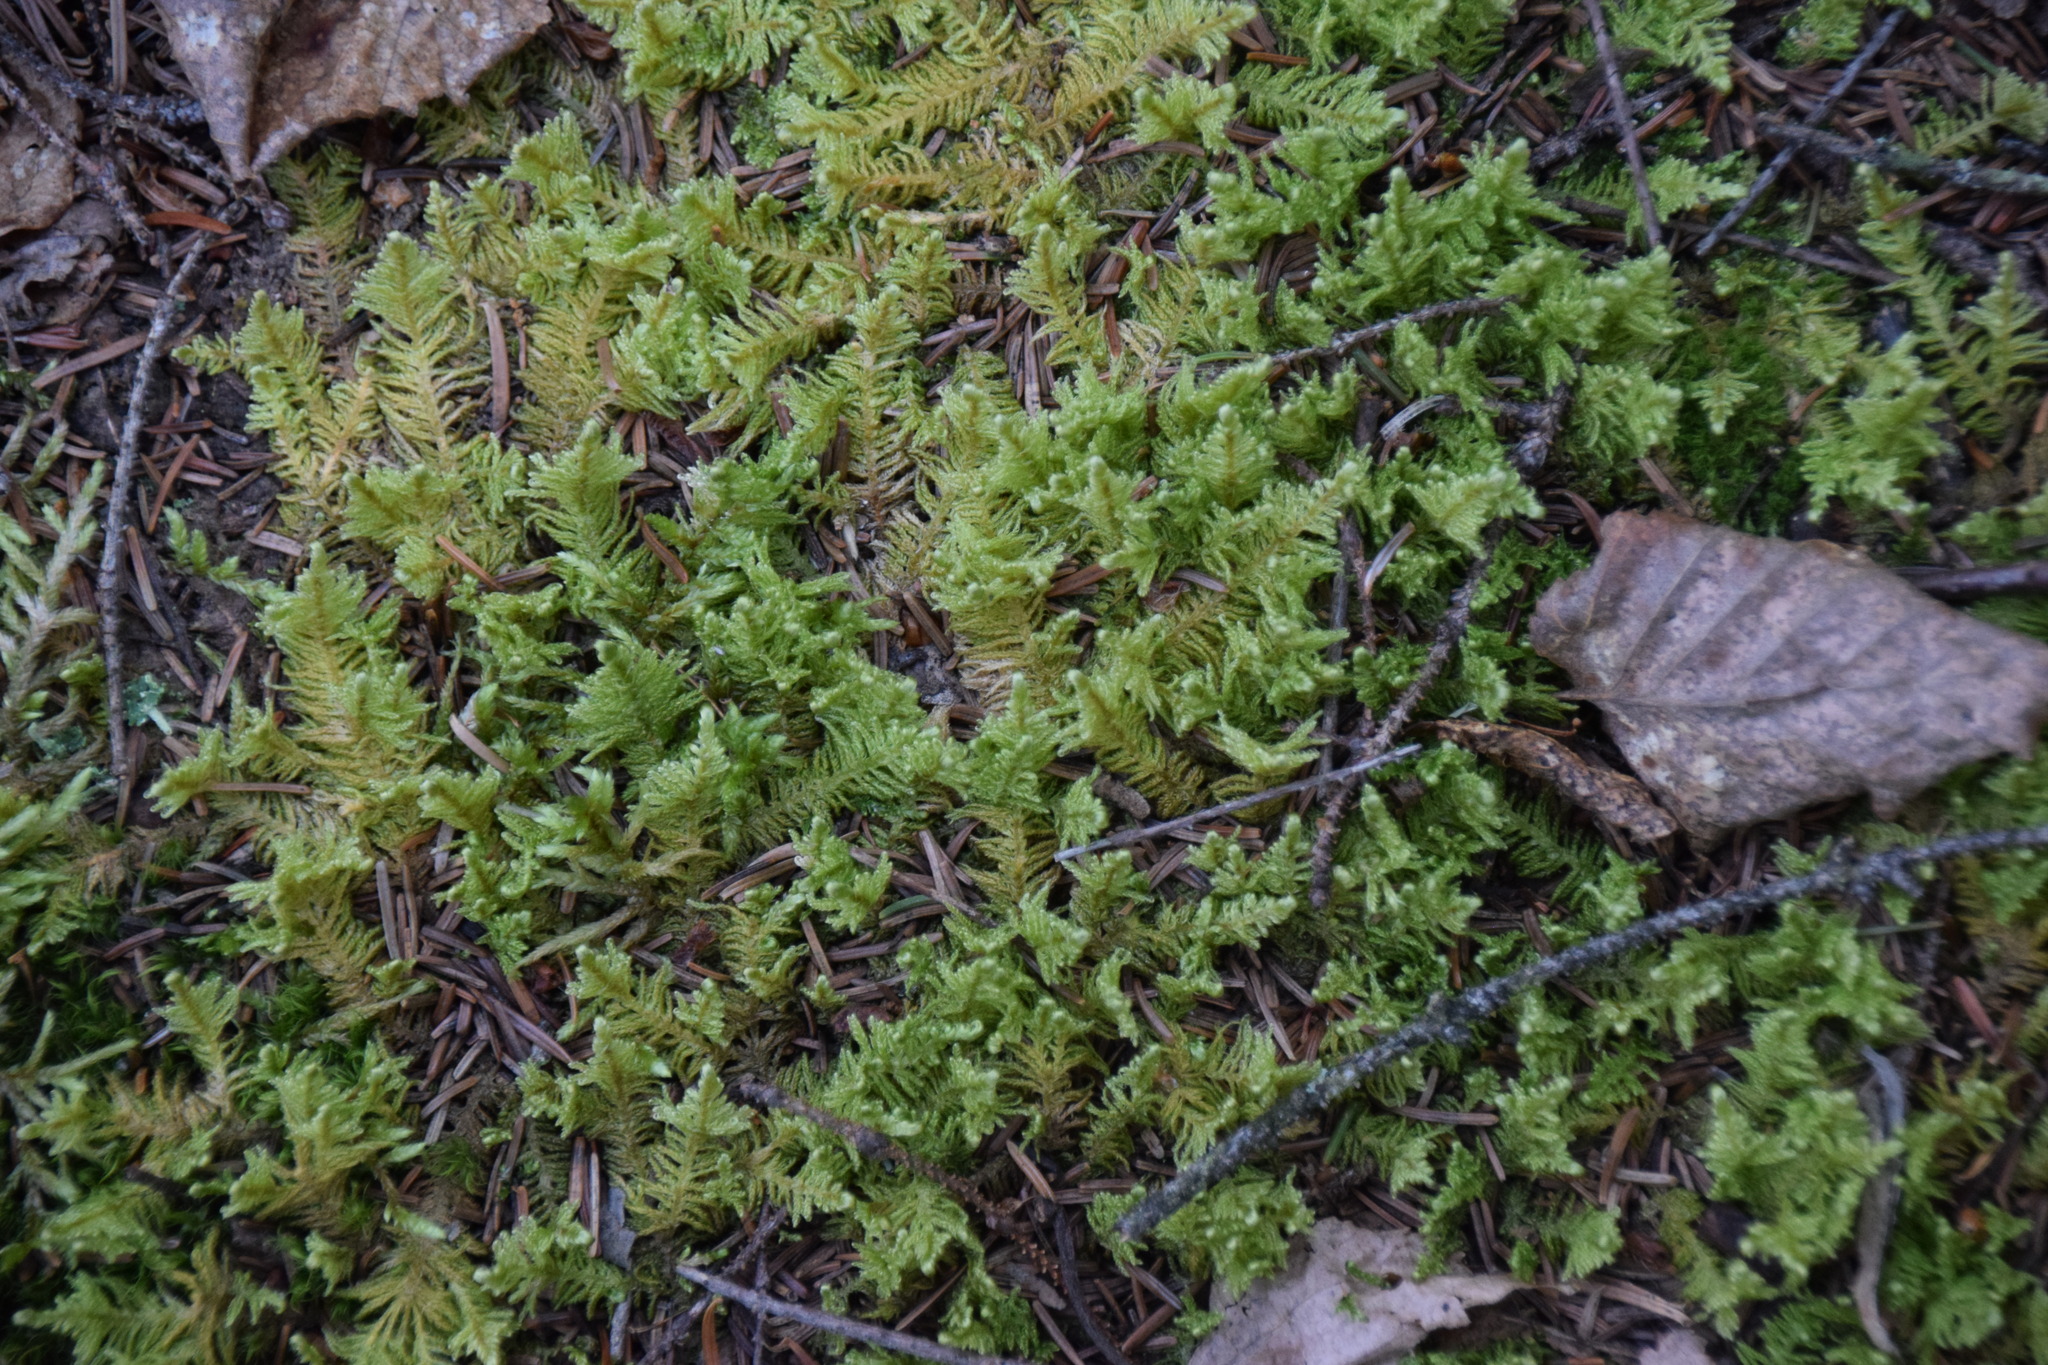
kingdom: Plantae
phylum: Bryophyta
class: Bryopsida
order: Hypnales
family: Pylaisiaceae
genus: Ptilium
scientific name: Ptilium crista-castrensis
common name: Knight's plume moss
